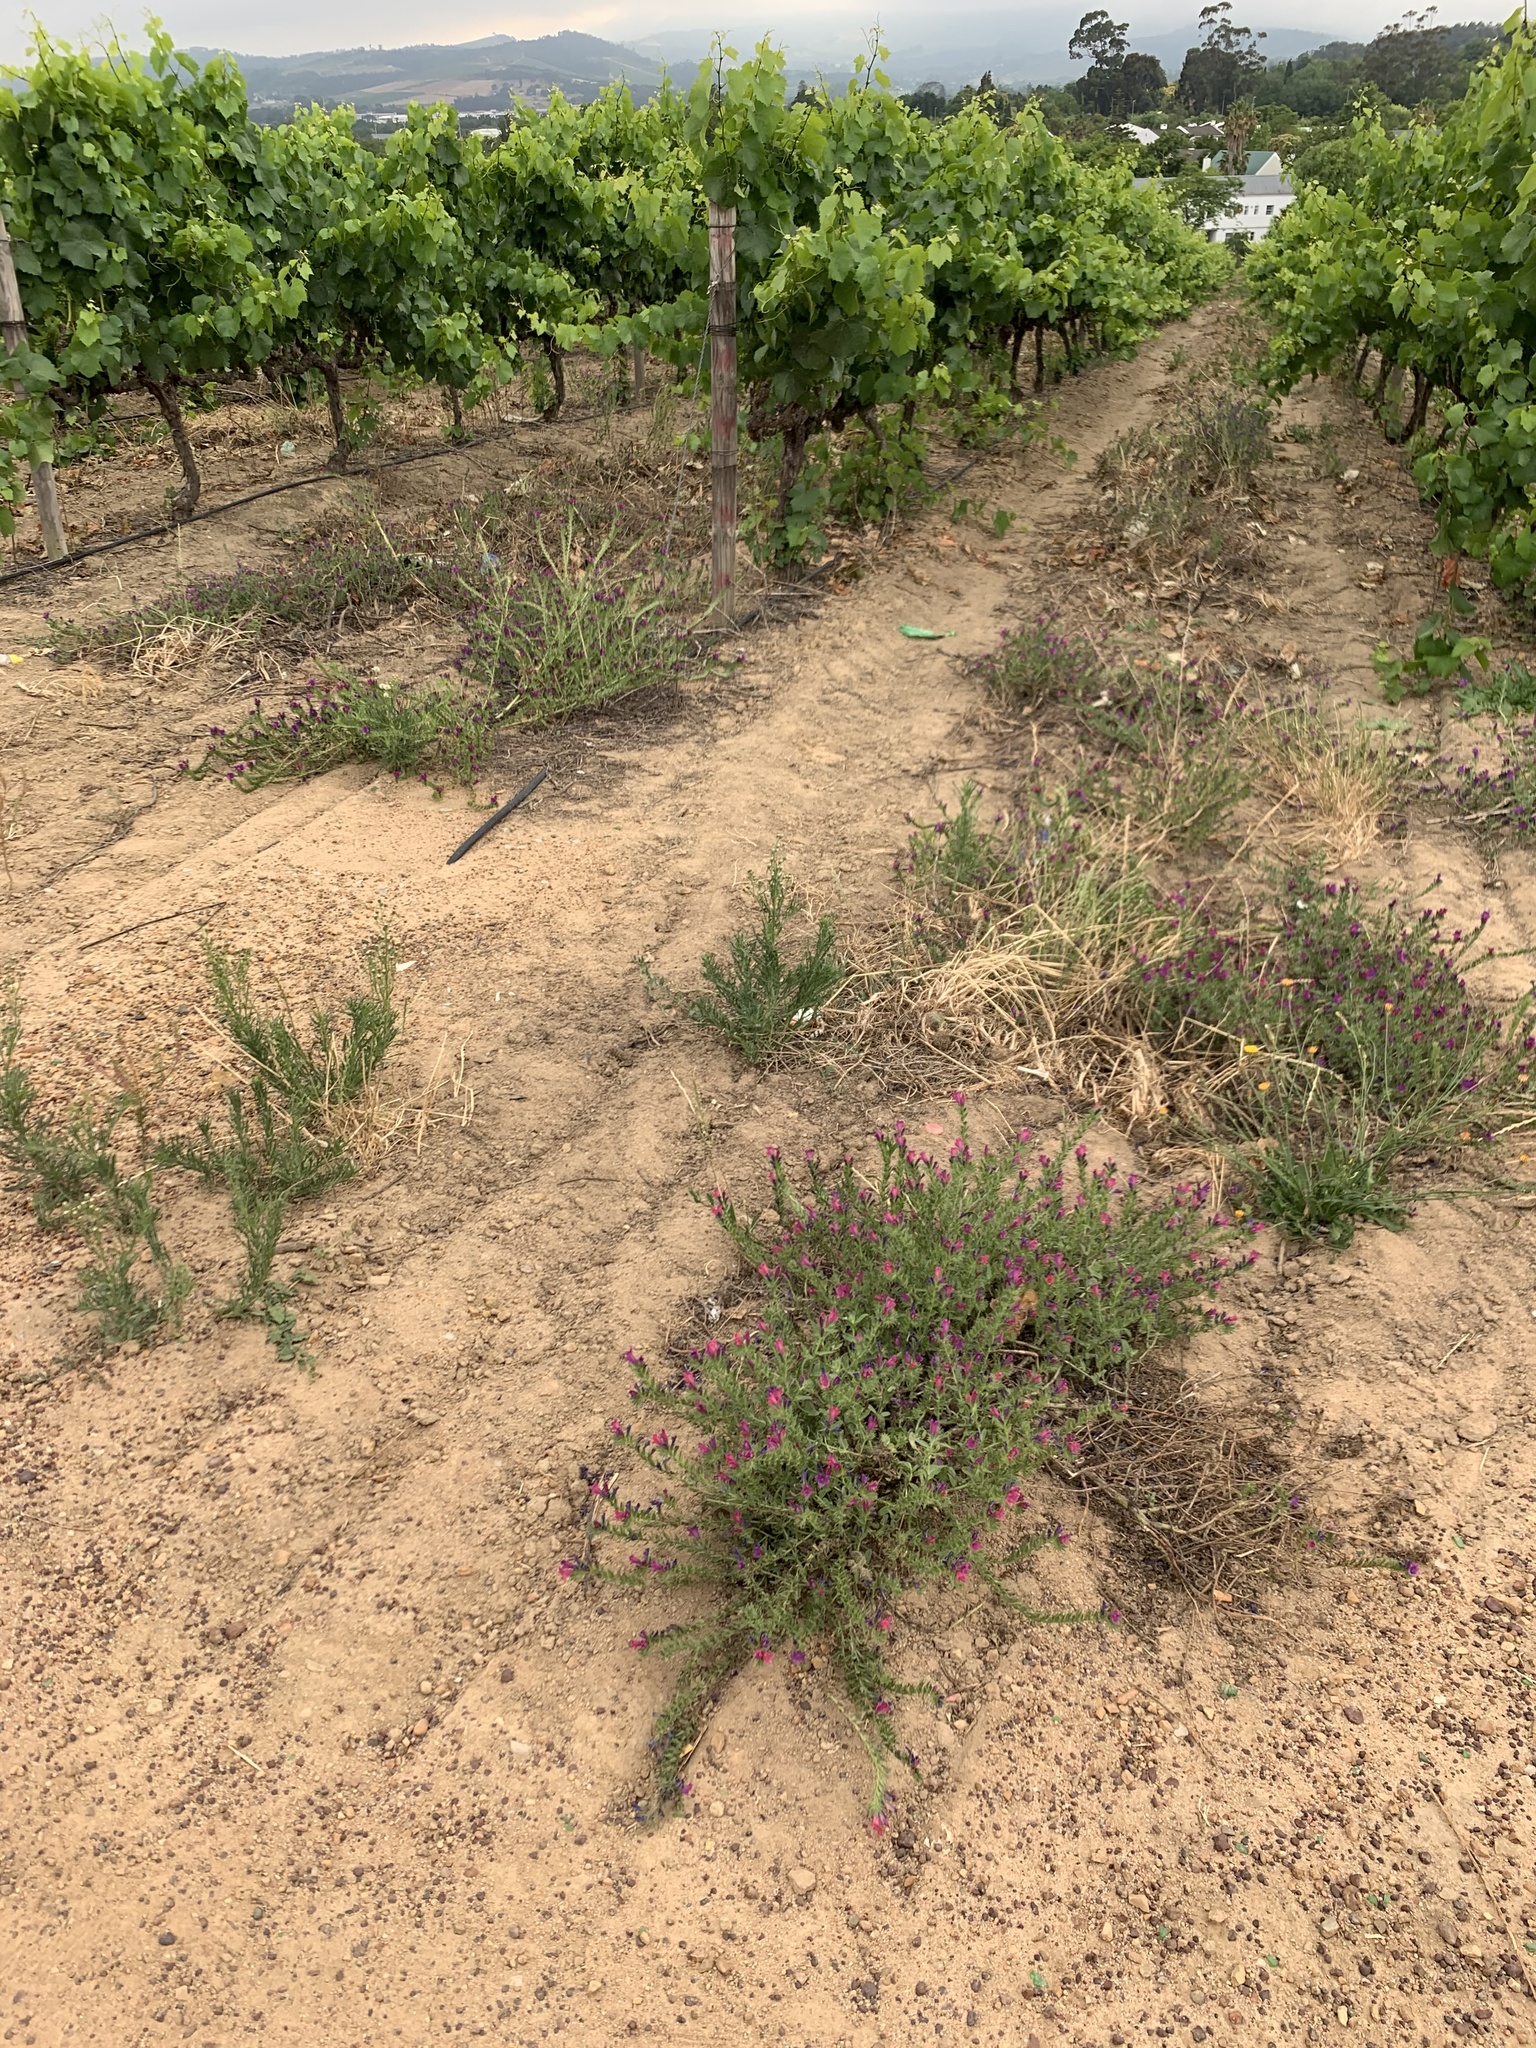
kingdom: Plantae
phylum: Tracheophyta
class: Magnoliopsida
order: Boraginales
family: Boraginaceae
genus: Echium
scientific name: Echium plantagineum
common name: Purple viper's-bugloss
